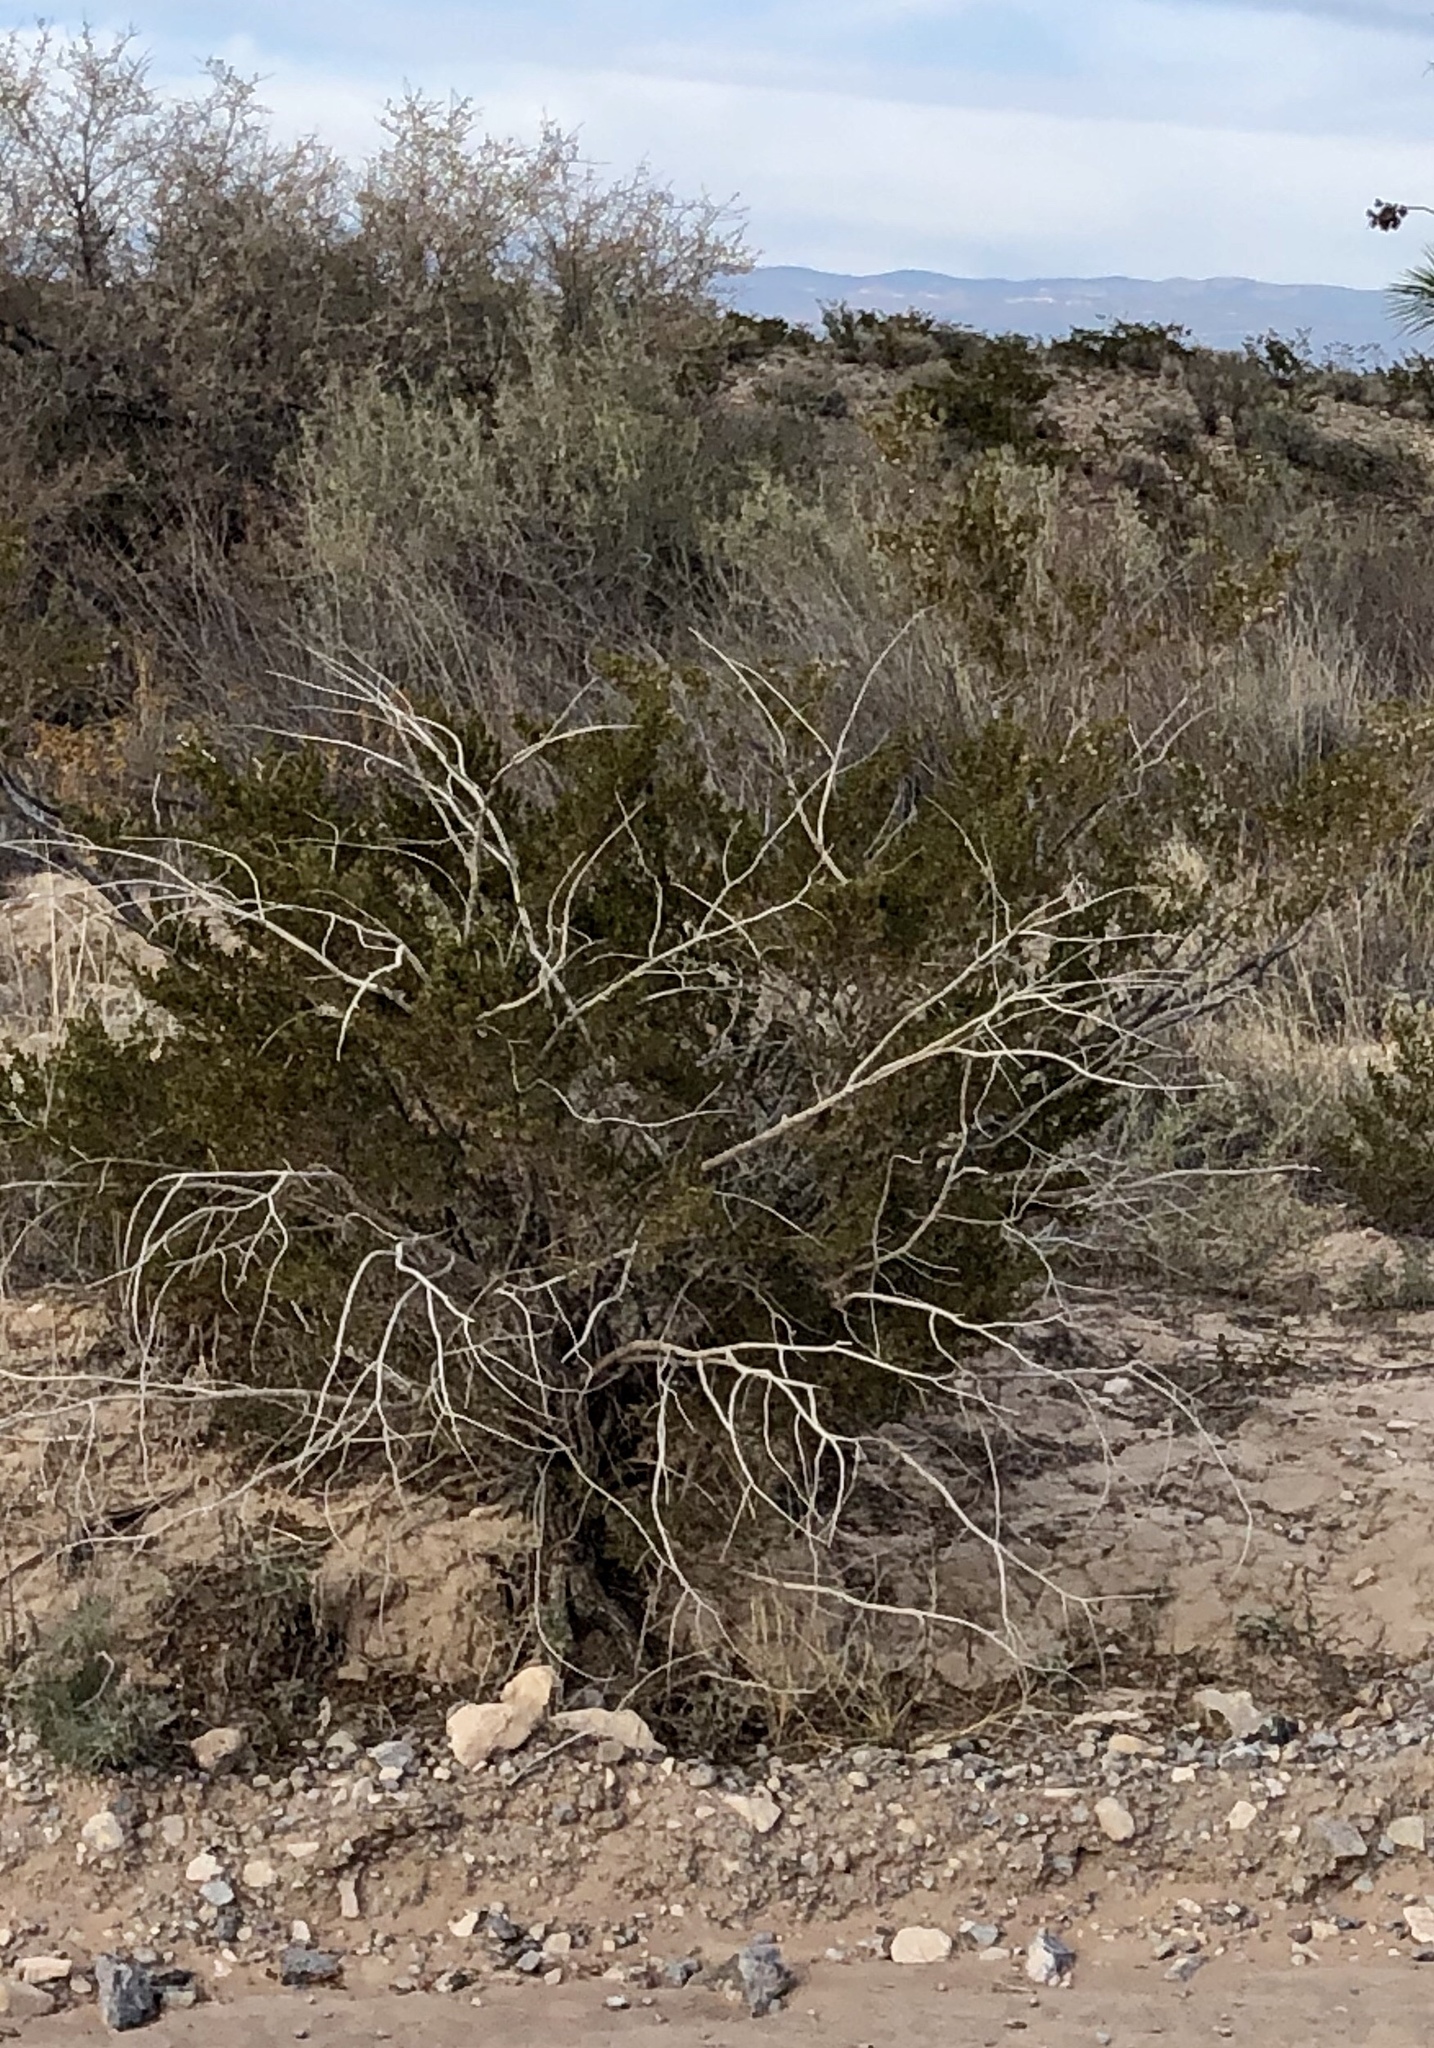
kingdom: Plantae
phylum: Tracheophyta
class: Magnoliopsida
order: Zygophyllales
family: Zygophyllaceae
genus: Larrea
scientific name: Larrea tridentata
